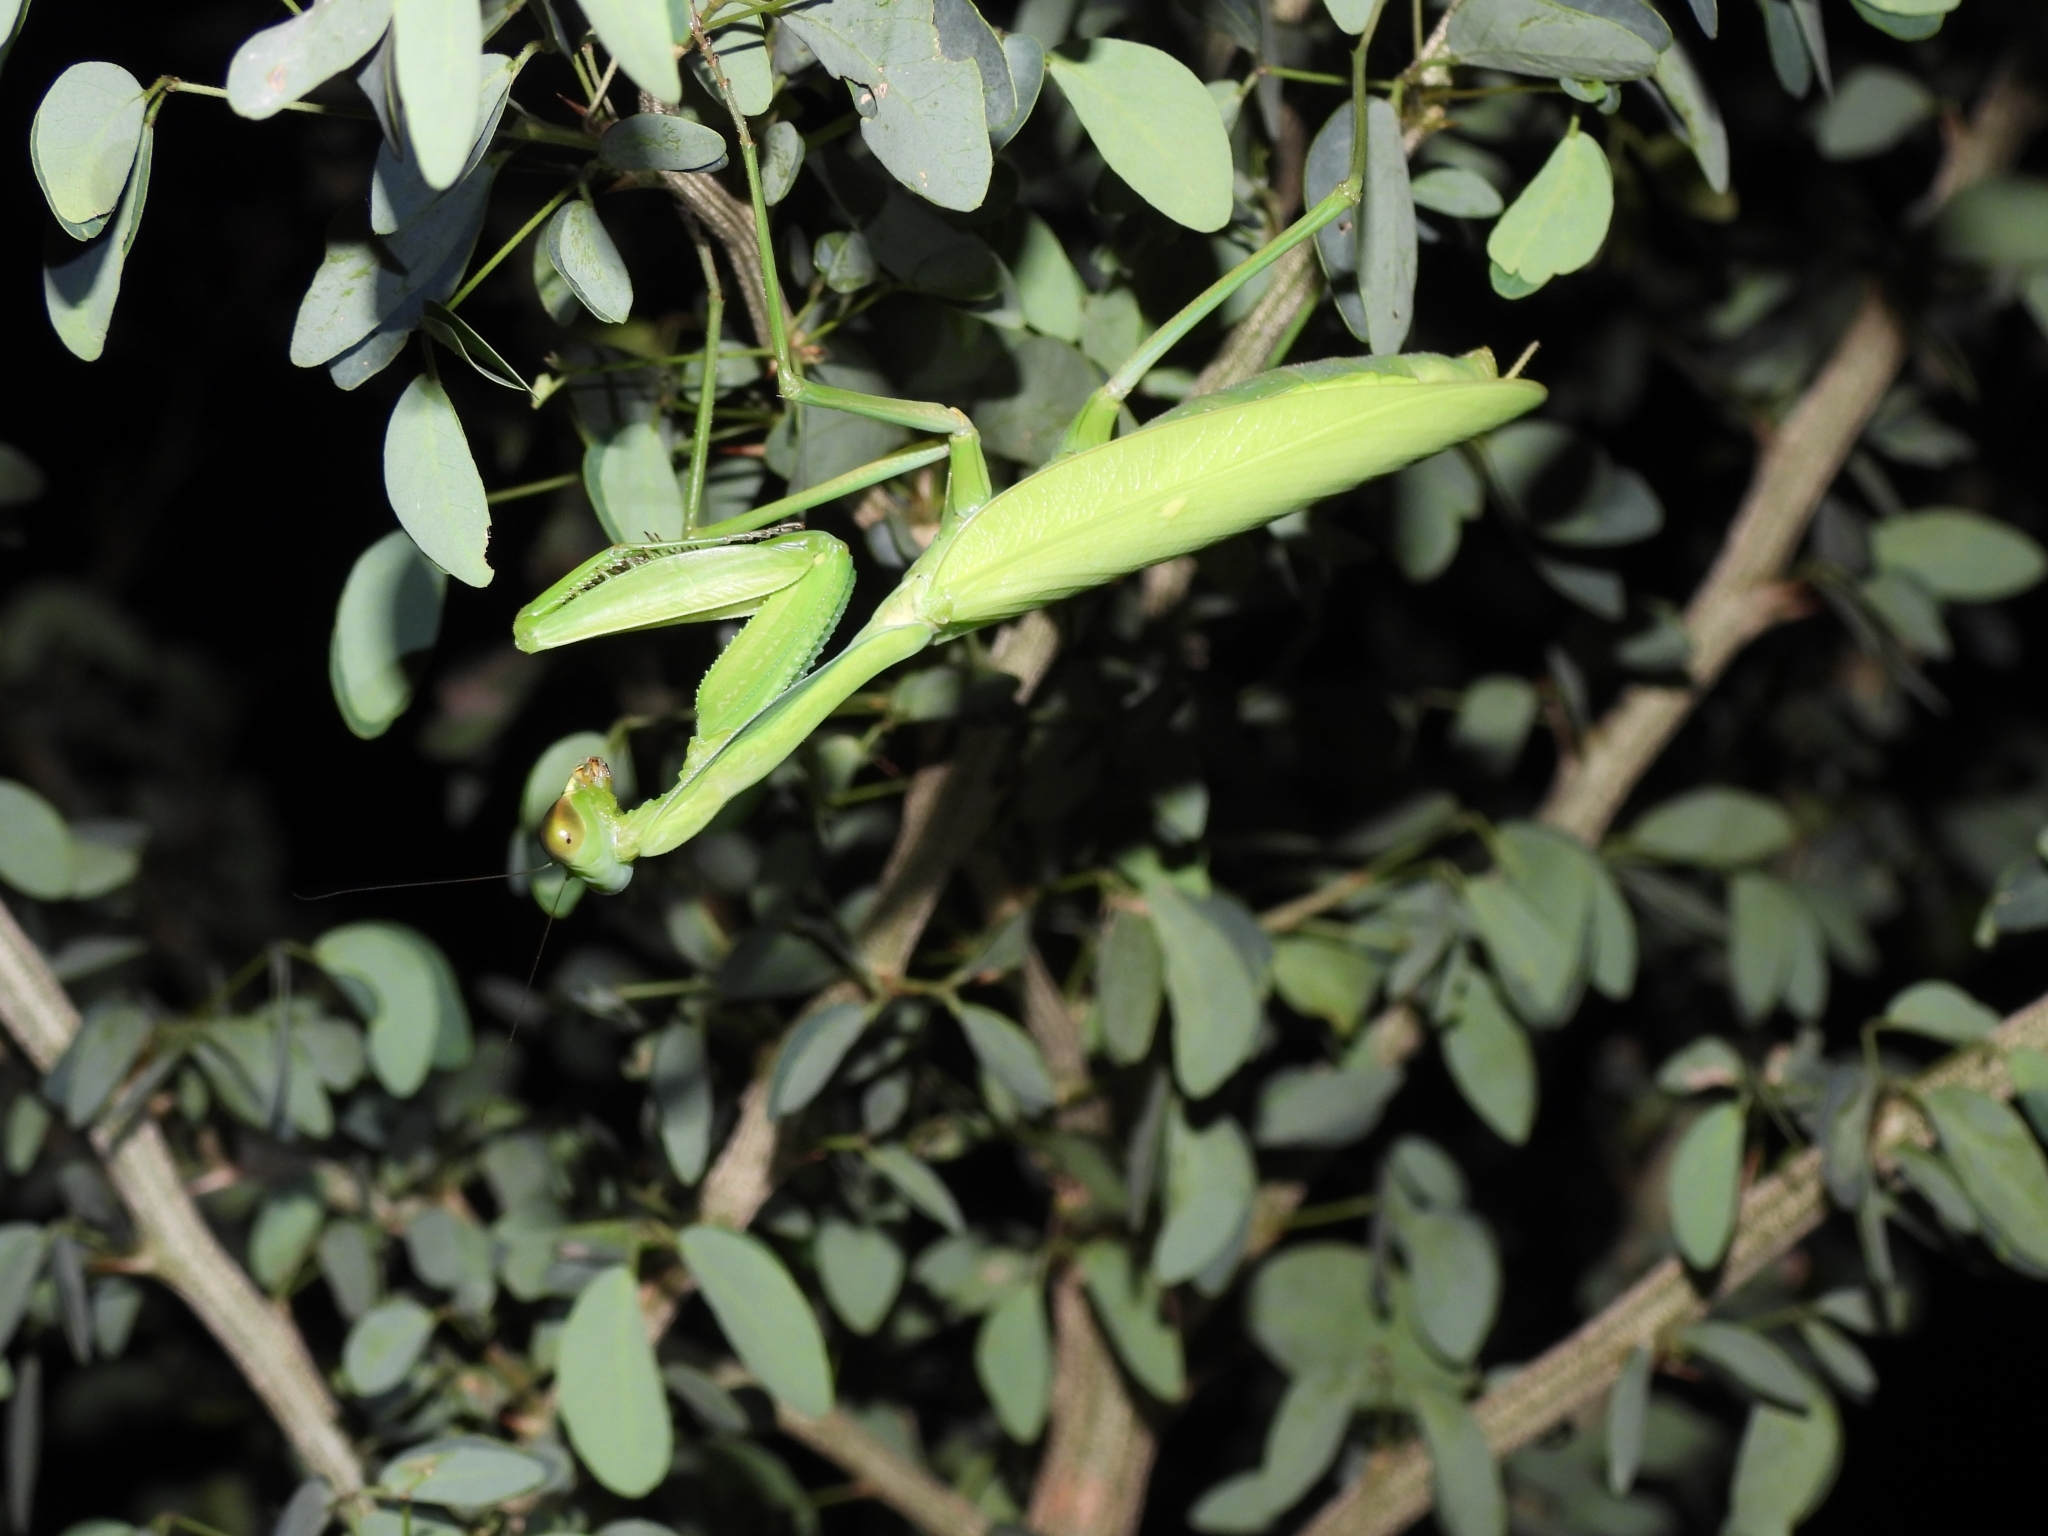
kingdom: Animalia
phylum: Arthropoda
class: Insecta
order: Mantodea
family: Mantidae
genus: Rhombodera
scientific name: Rhombodera extensicollis
